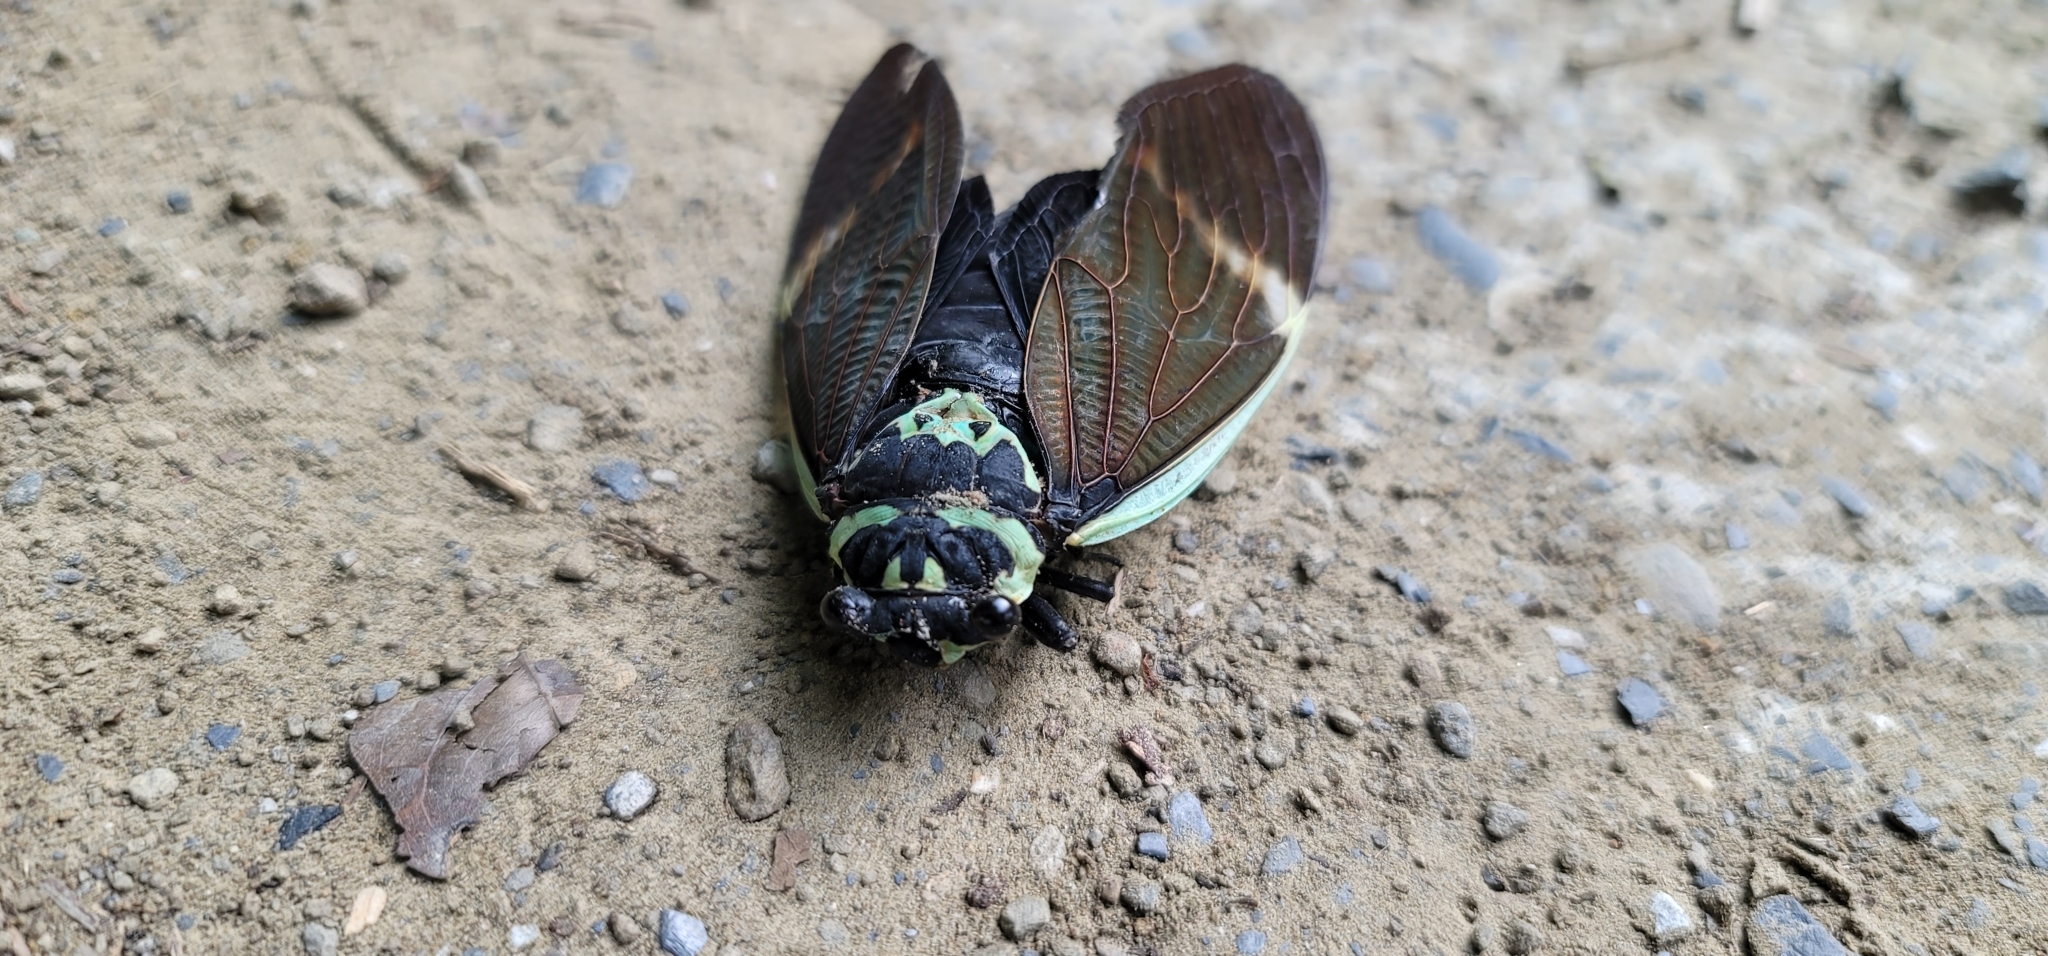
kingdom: Animalia
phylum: Arthropoda
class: Insecta
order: Hemiptera
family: Cicadidae
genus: Formotosena
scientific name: Formotosena seebohmi
